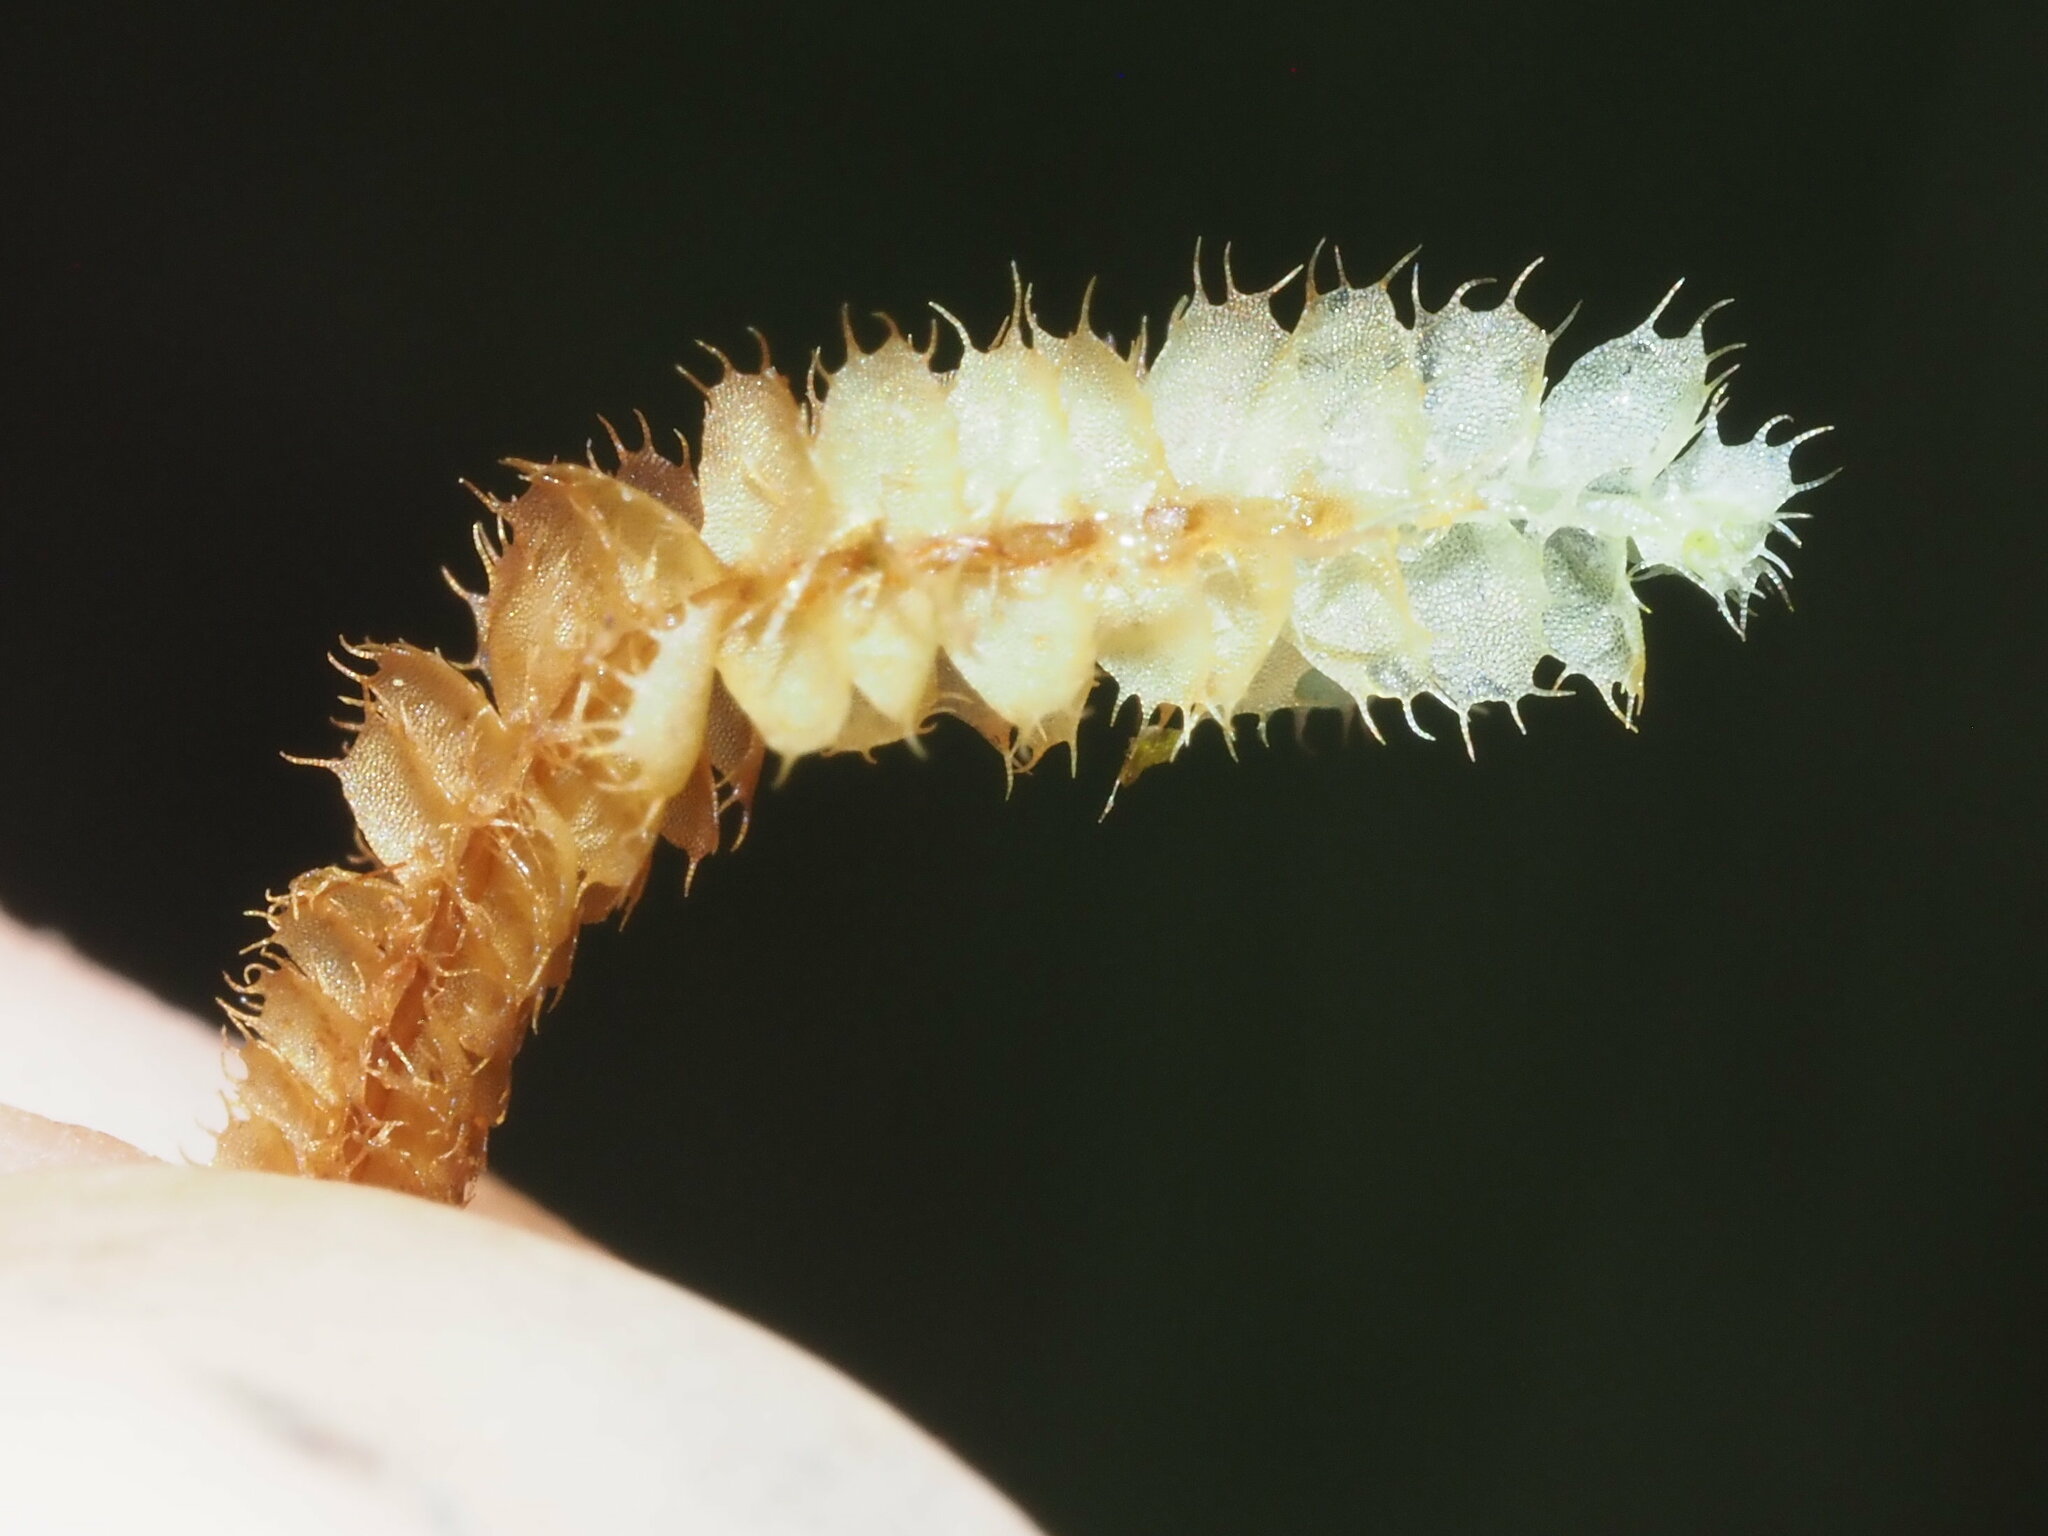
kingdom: Plantae
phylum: Marchantiophyta
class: Jungermanniopsida
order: Jungermanniales
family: Lophocoleaceae
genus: Leptoscyphus
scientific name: Leptoscyphus
